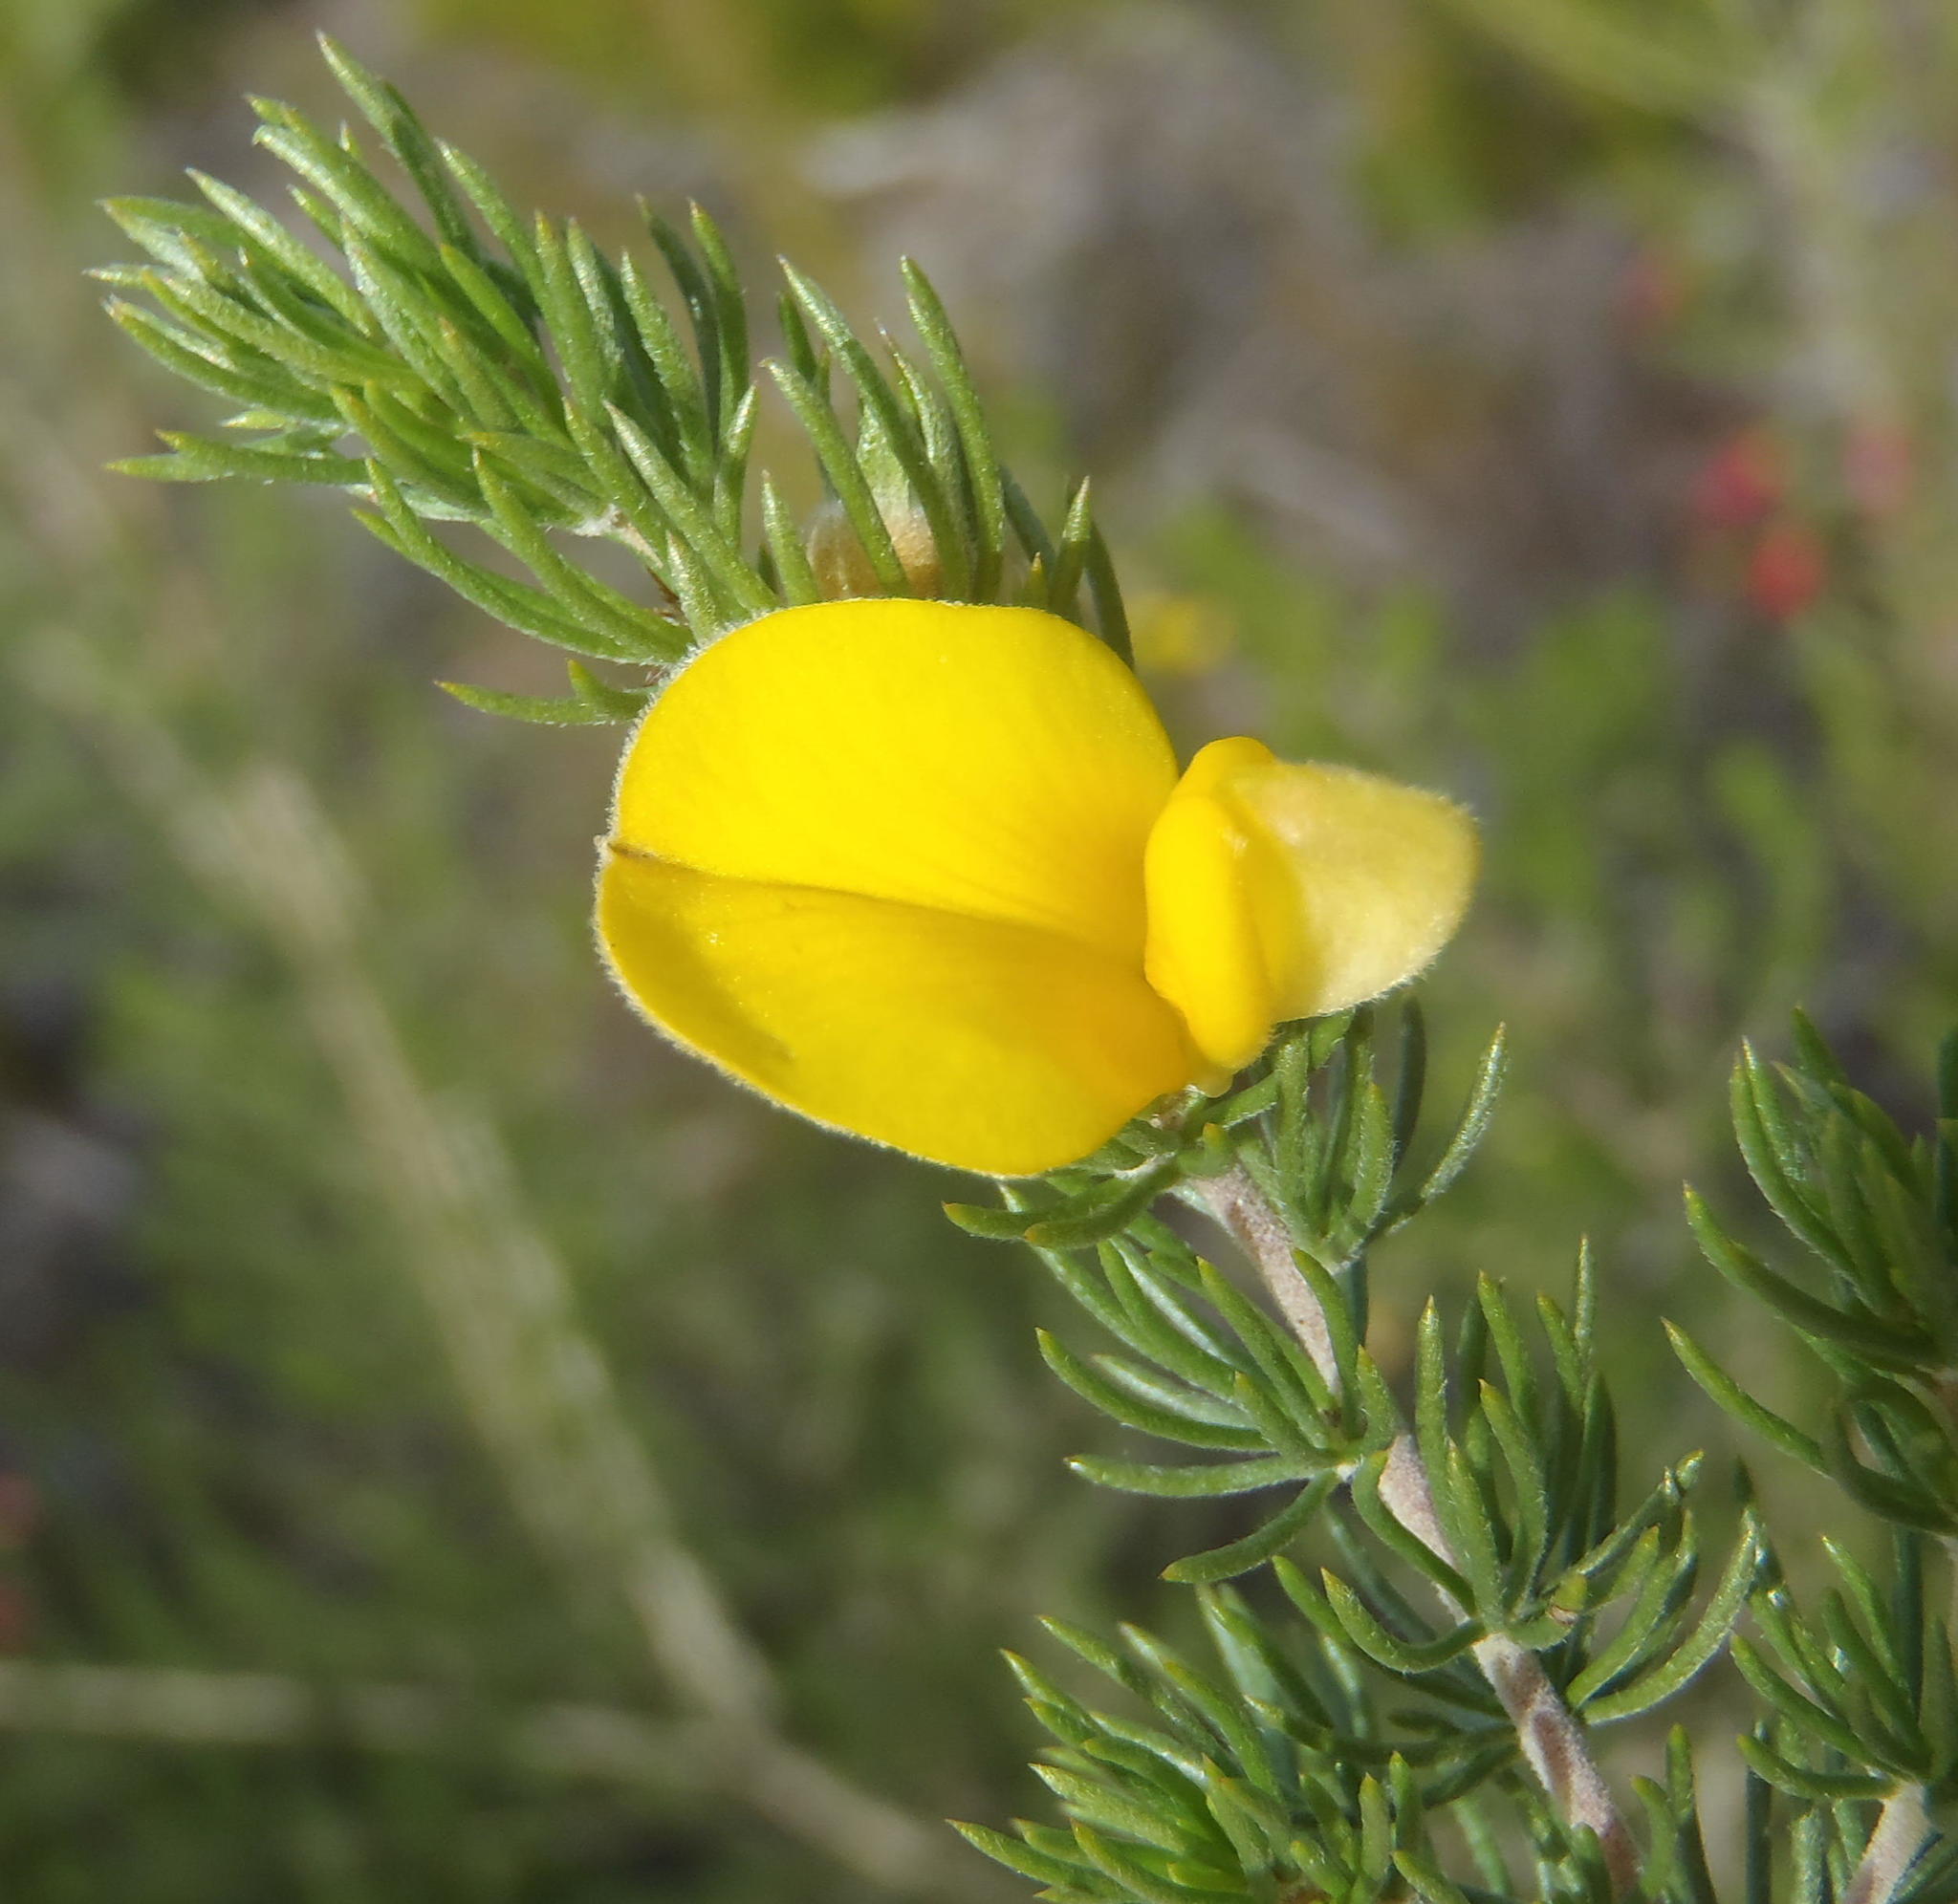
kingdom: Plantae
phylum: Tracheophyta
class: Magnoliopsida
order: Fabales
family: Fabaceae
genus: Aspalathus
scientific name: Aspalathus kougaensis
